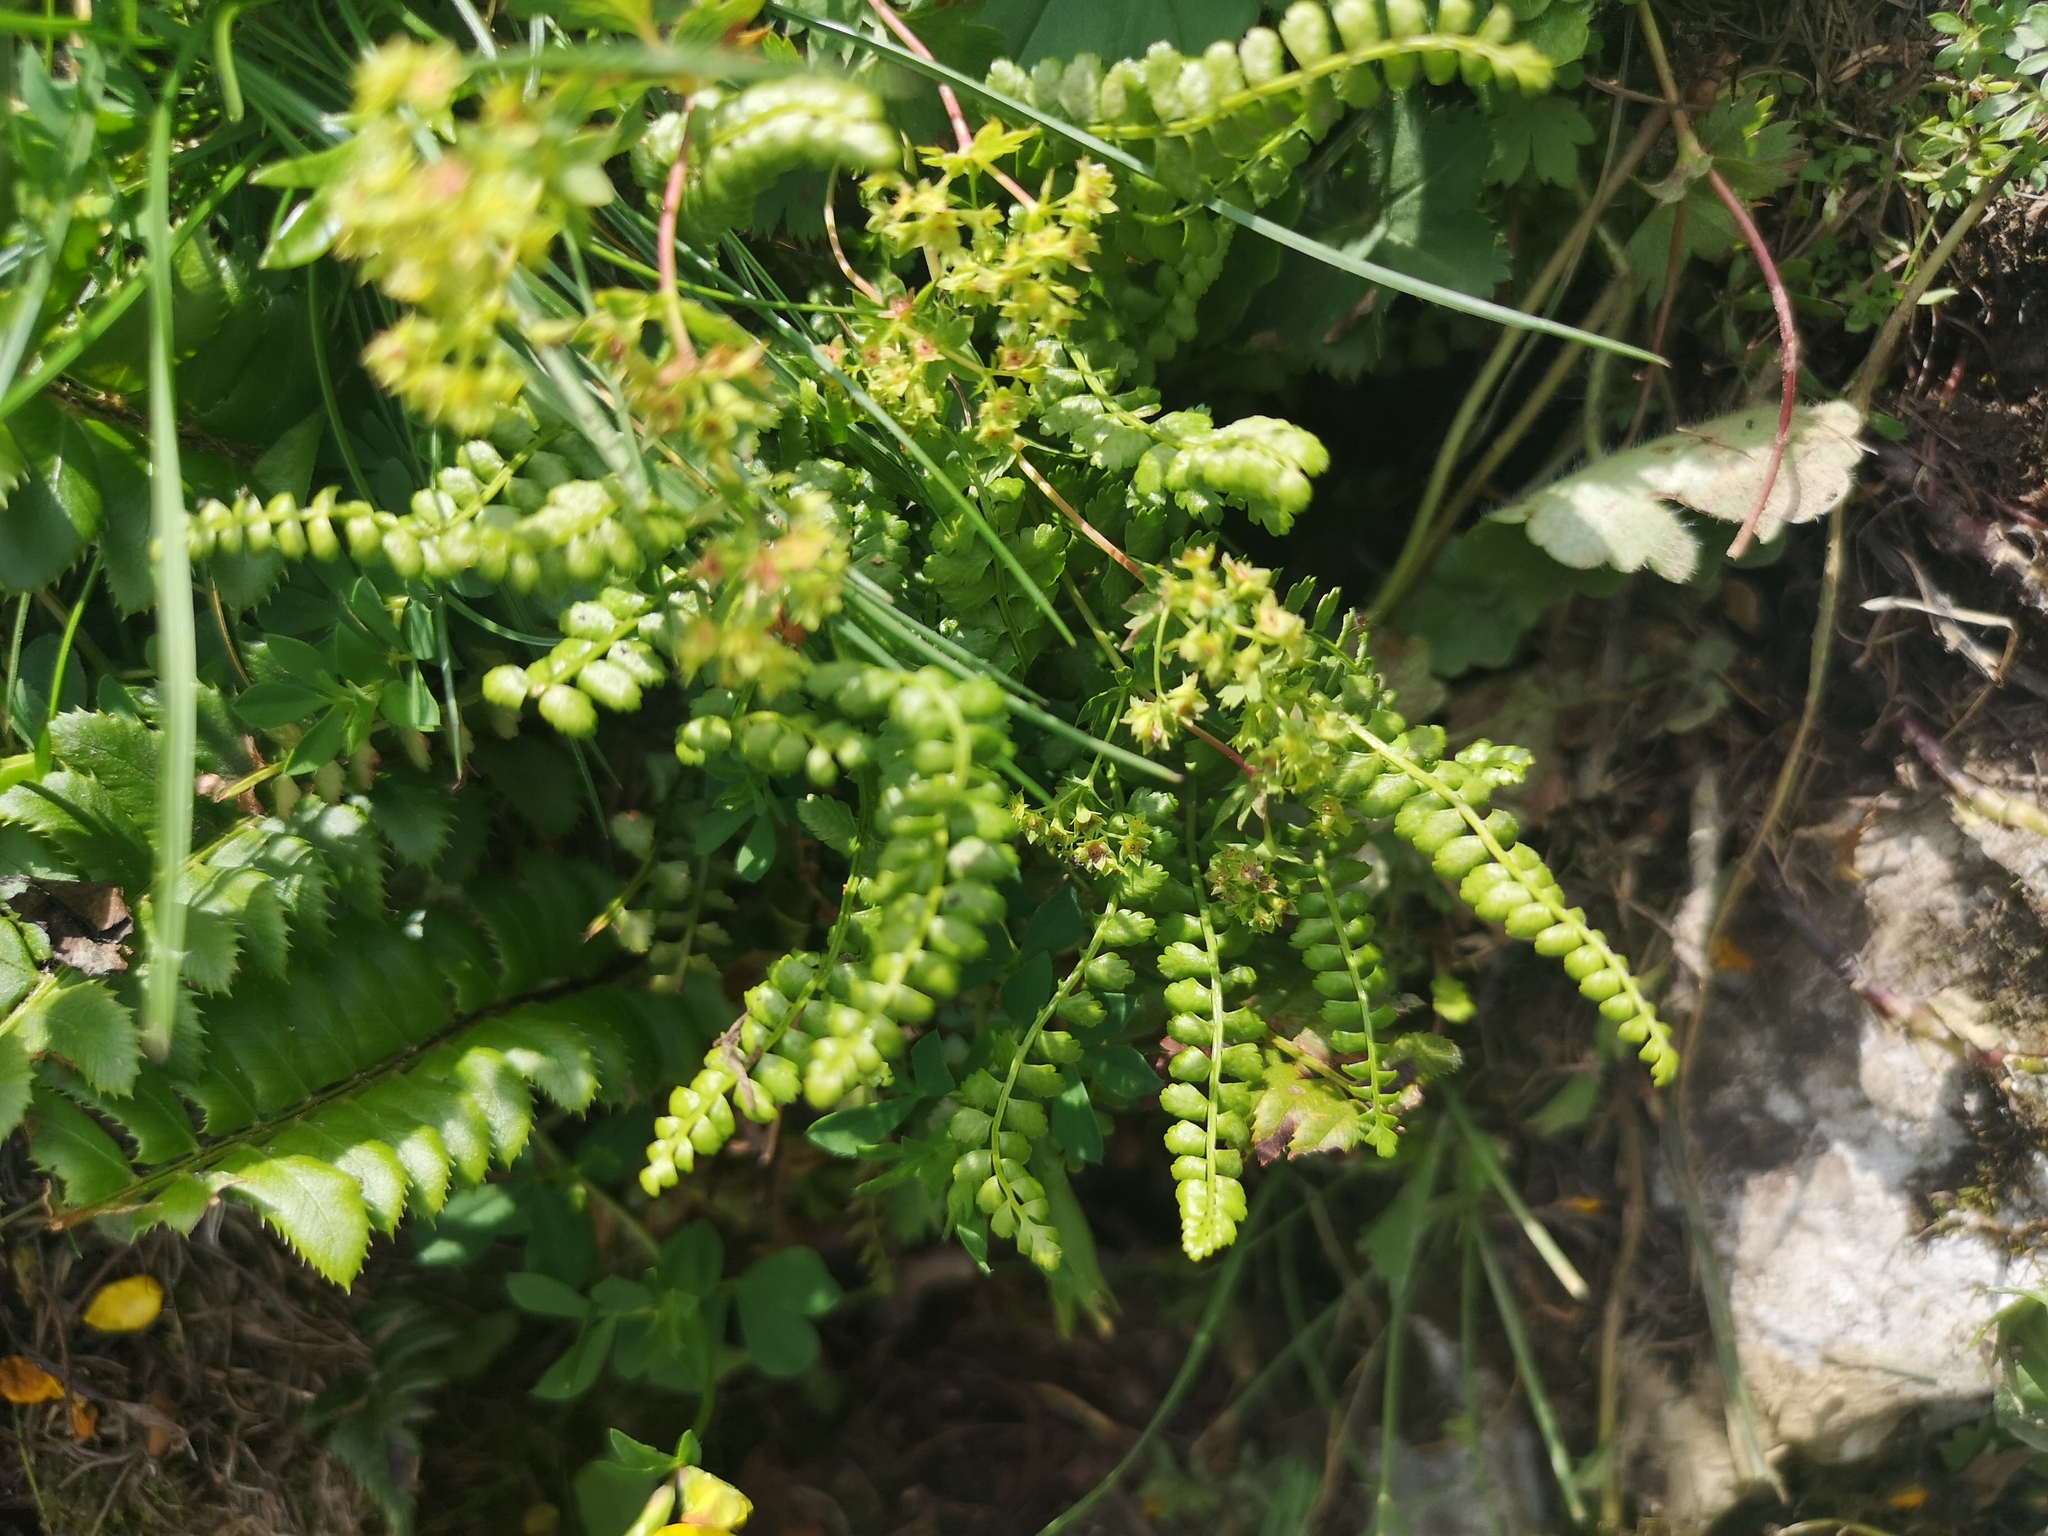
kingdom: Plantae
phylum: Tracheophyta
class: Polypodiopsida
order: Polypodiales
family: Aspleniaceae
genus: Asplenium
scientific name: Asplenium viride
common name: Green spleenwort
